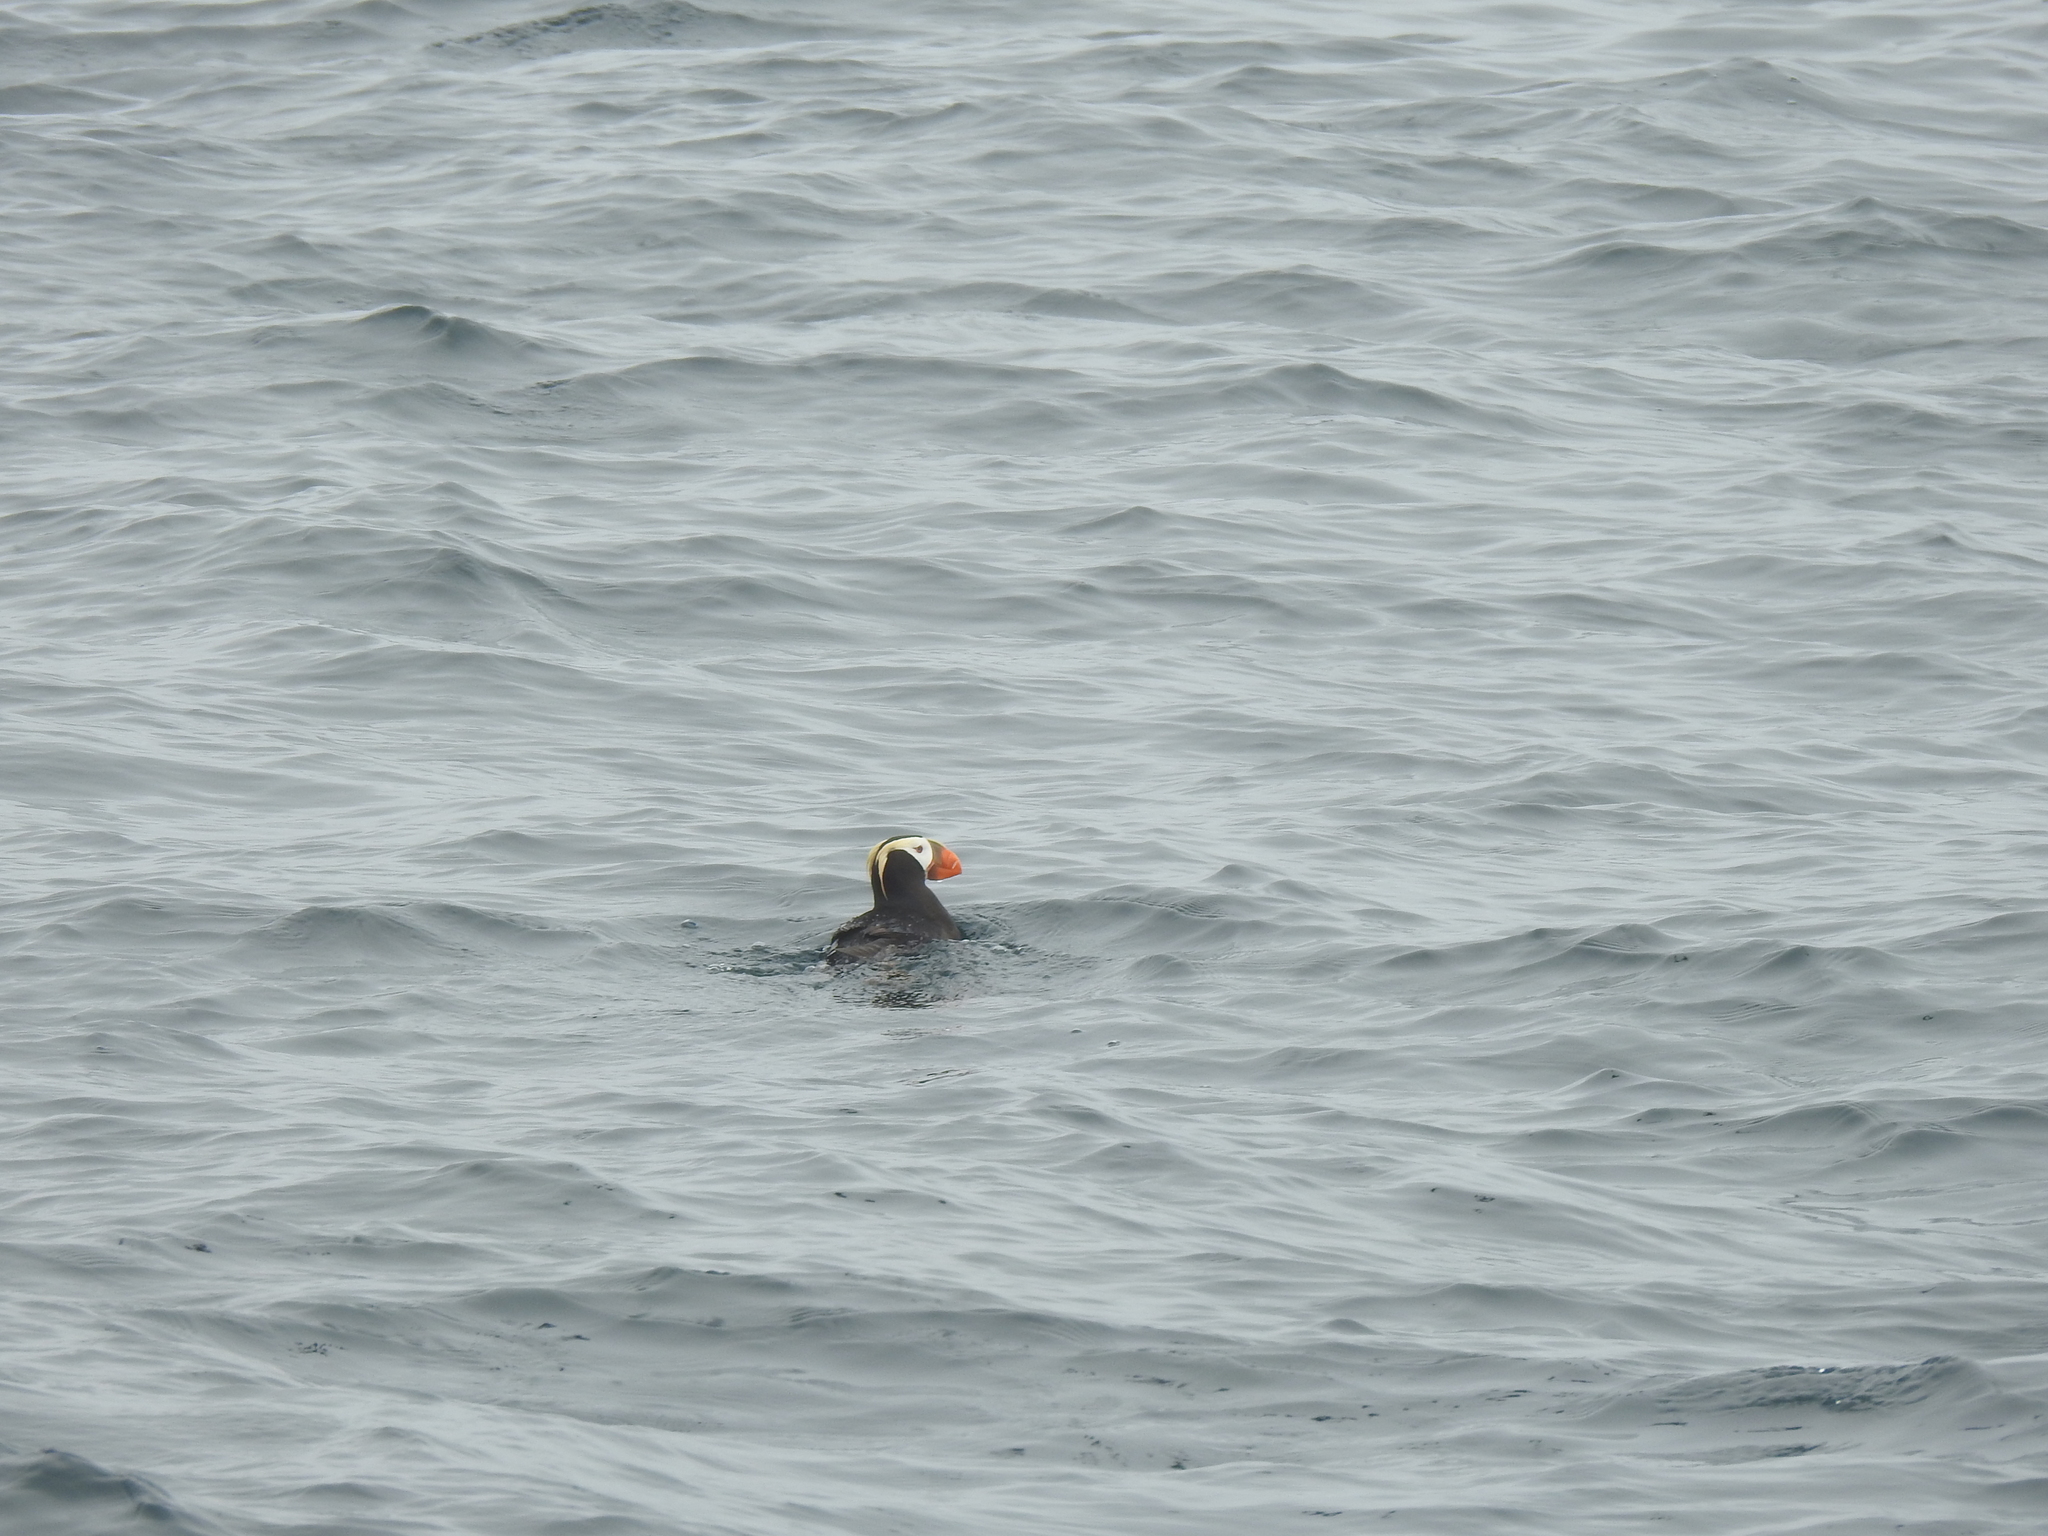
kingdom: Animalia
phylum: Chordata
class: Aves
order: Charadriiformes
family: Alcidae
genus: Fratercula
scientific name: Fratercula cirrhata
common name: Tufted puffin
